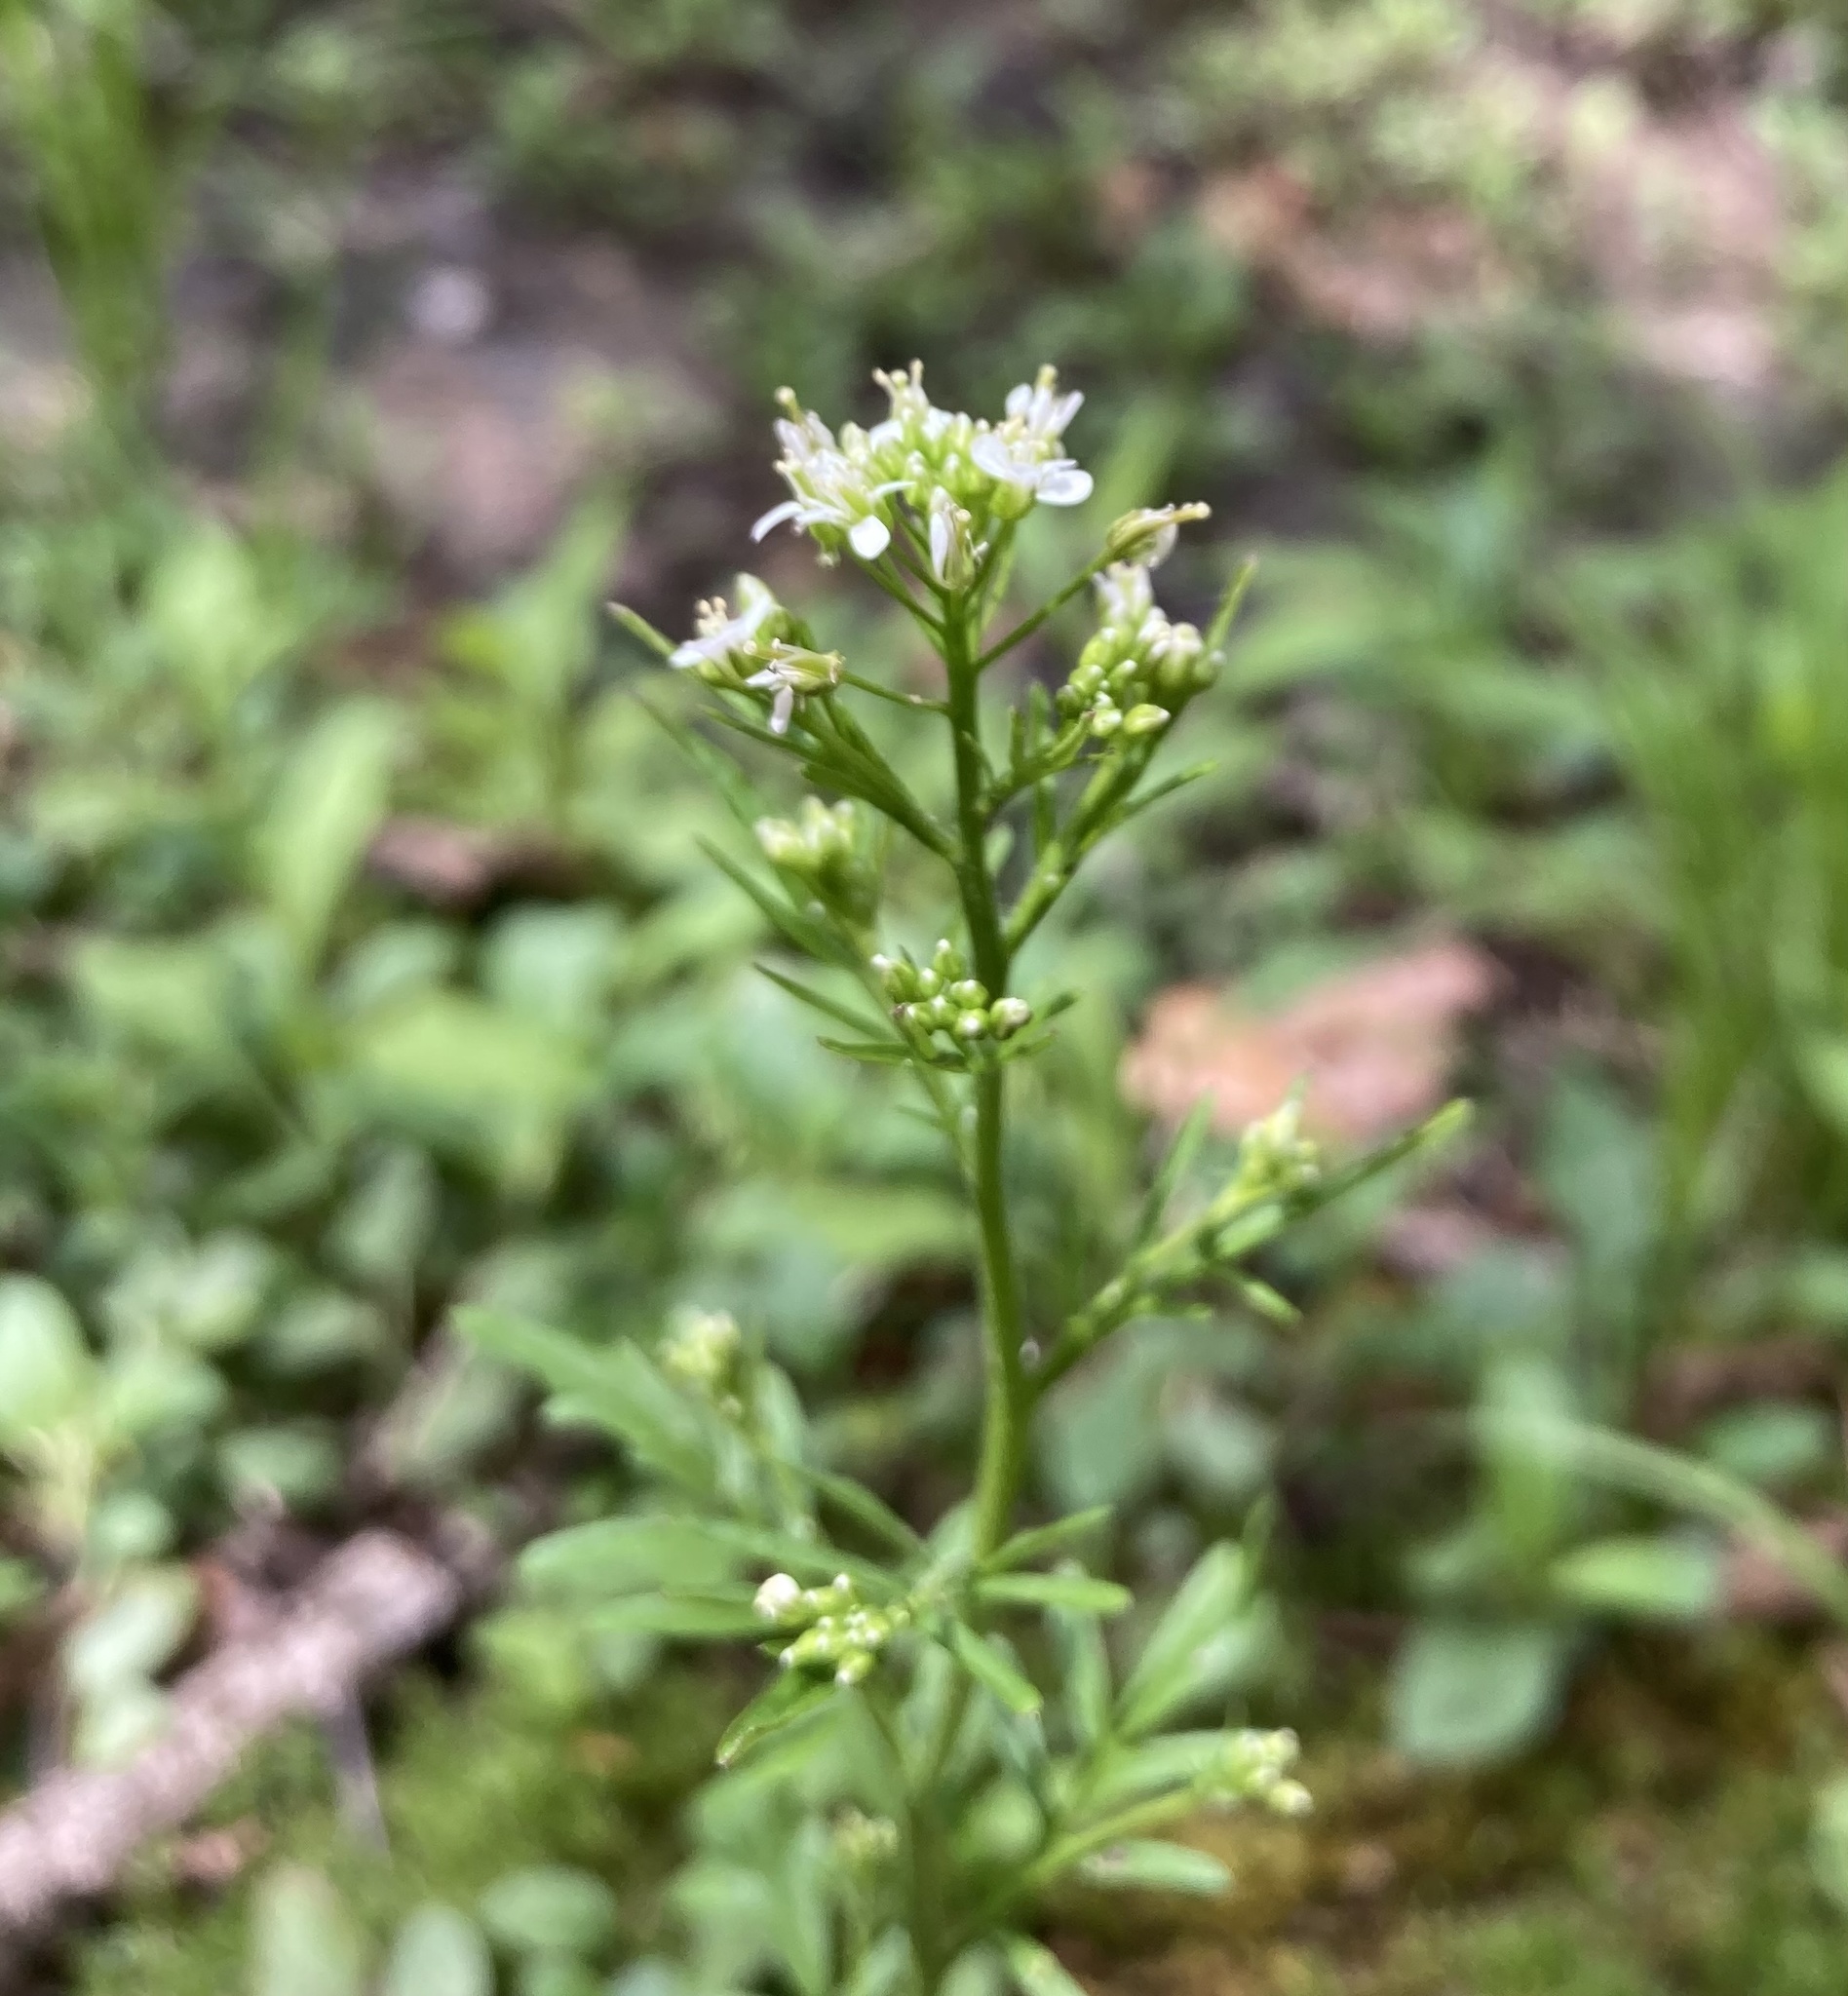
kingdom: Plantae
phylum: Tracheophyta
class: Magnoliopsida
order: Brassicales
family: Brassicaceae
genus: Cardamine
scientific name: Cardamine pensylvanica
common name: Pennsylvania bittercress
